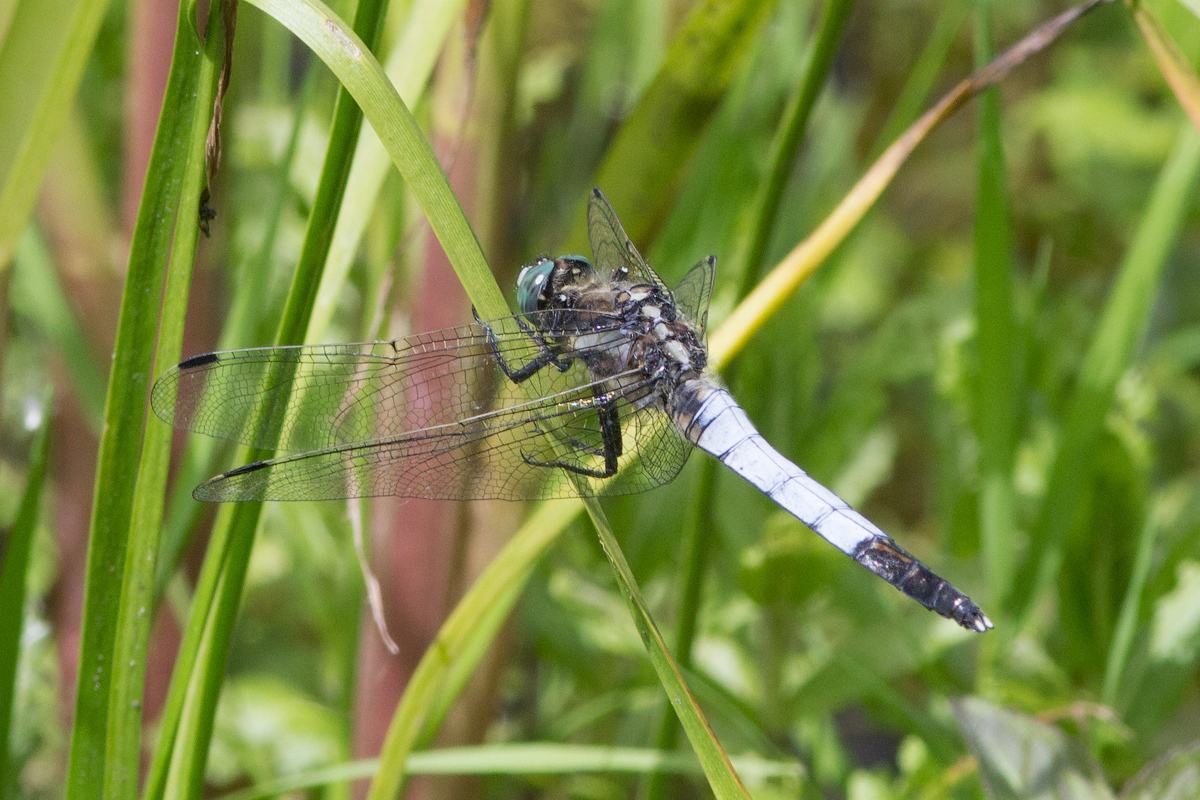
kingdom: Animalia
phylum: Arthropoda
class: Insecta
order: Odonata
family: Libellulidae
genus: Orthetrum
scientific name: Orthetrum albistylum
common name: White-tailed skimmer
